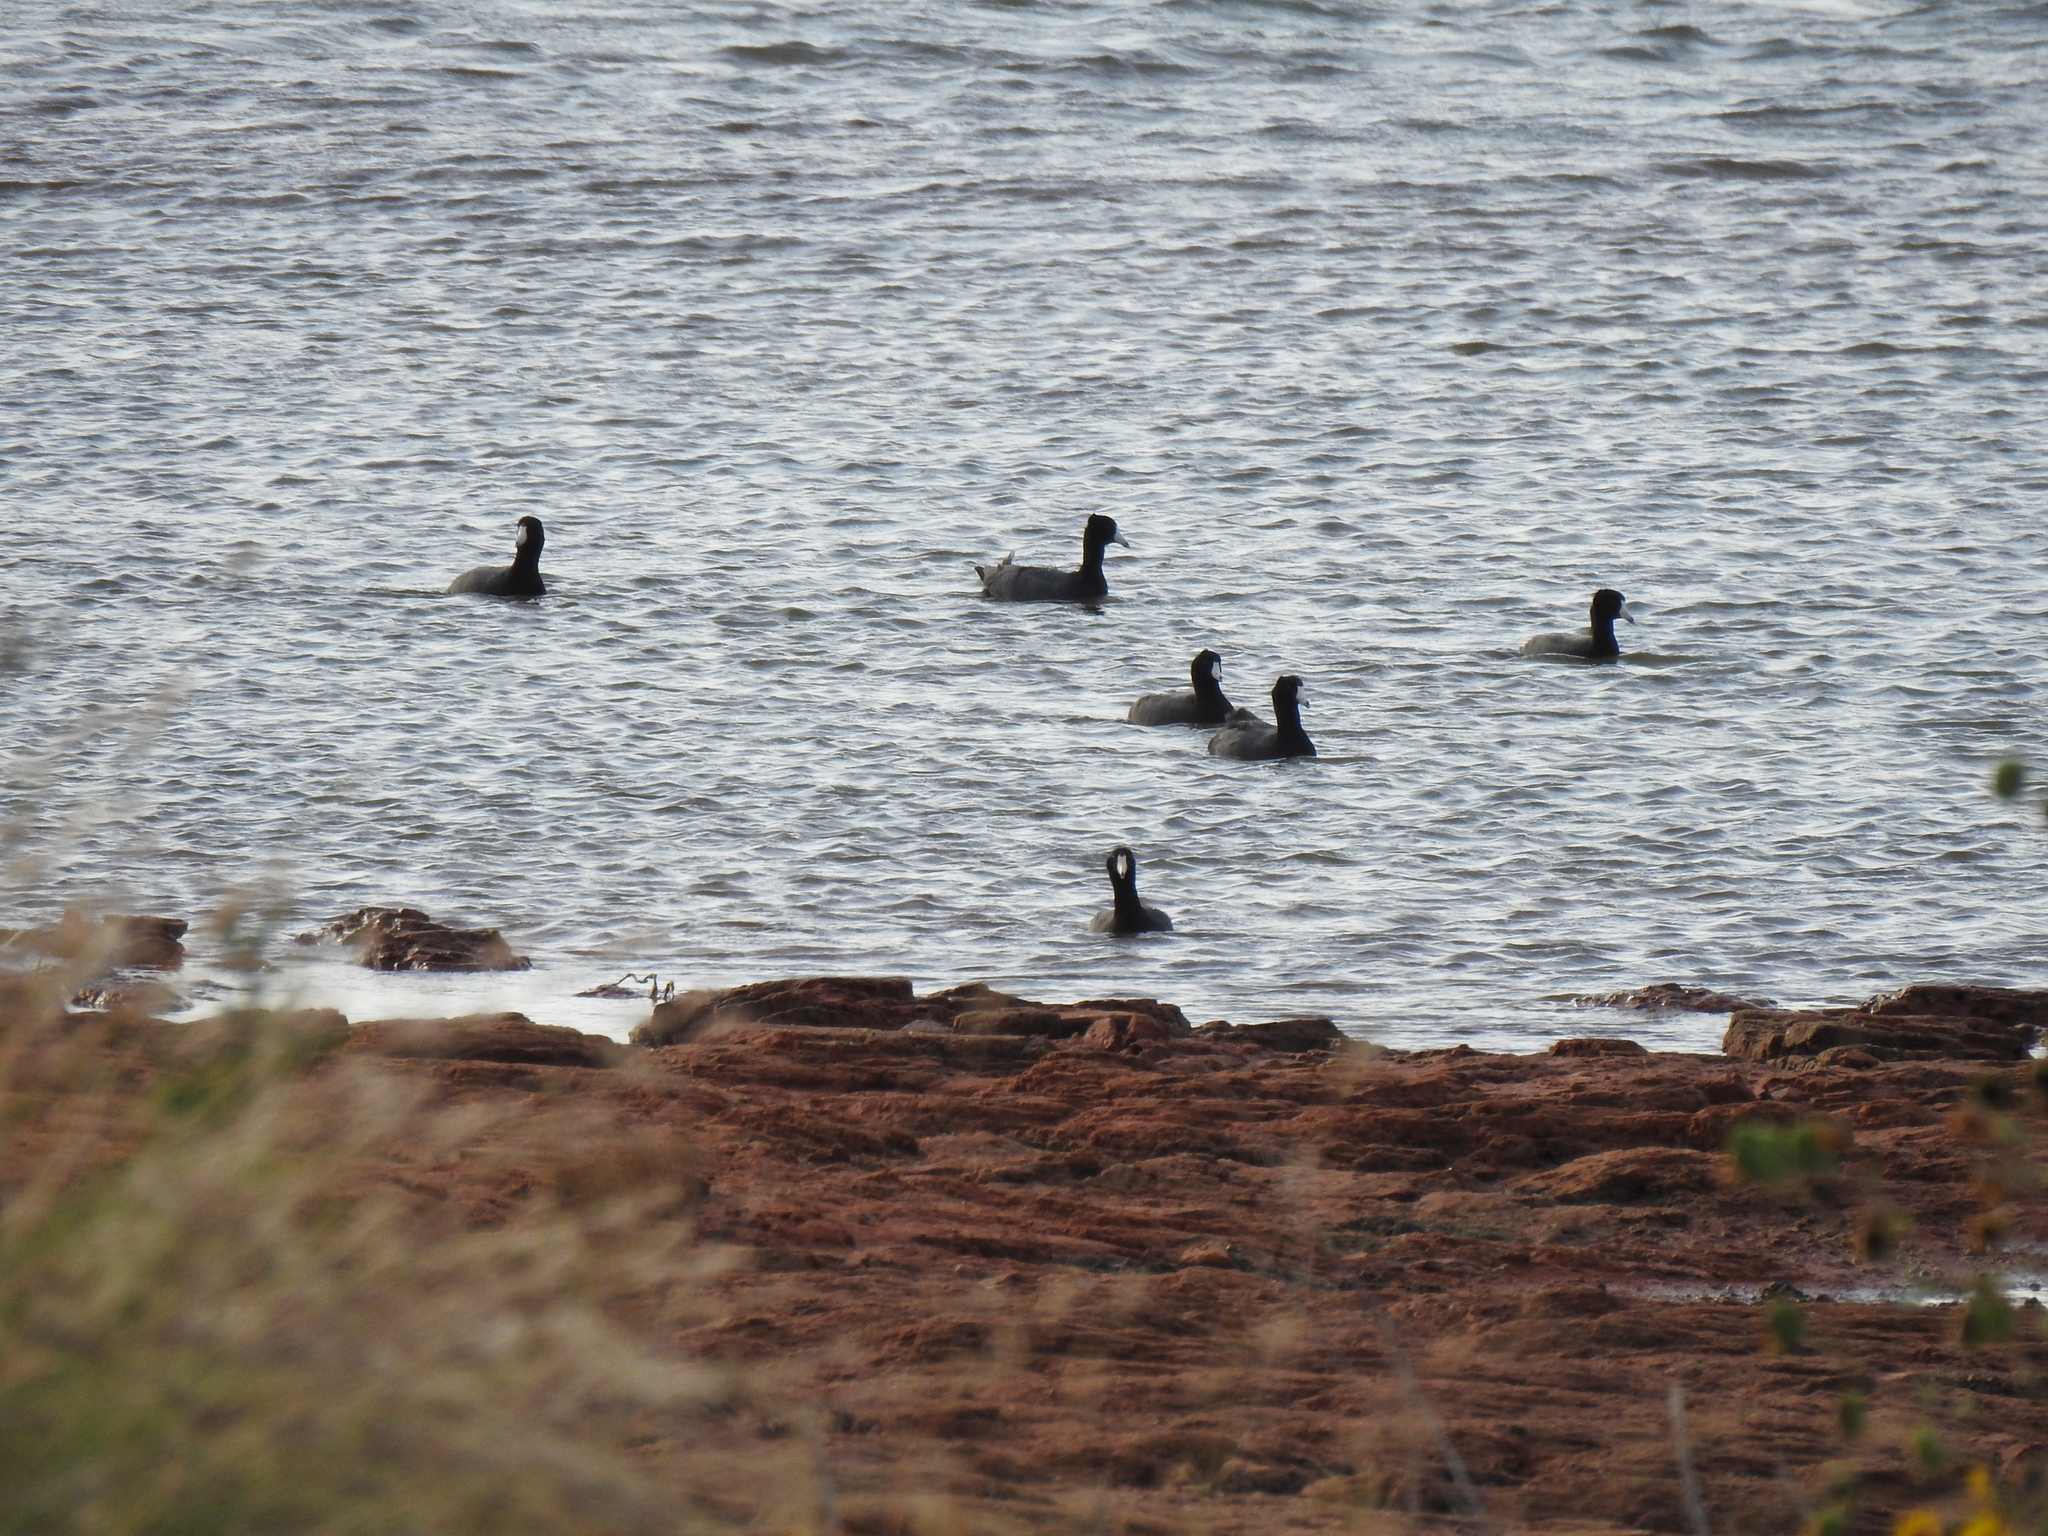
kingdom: Animalia
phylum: Chordata
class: Aves
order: Gruiformes
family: Rallidae
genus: Fulica
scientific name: Fulica americana
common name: American coot
